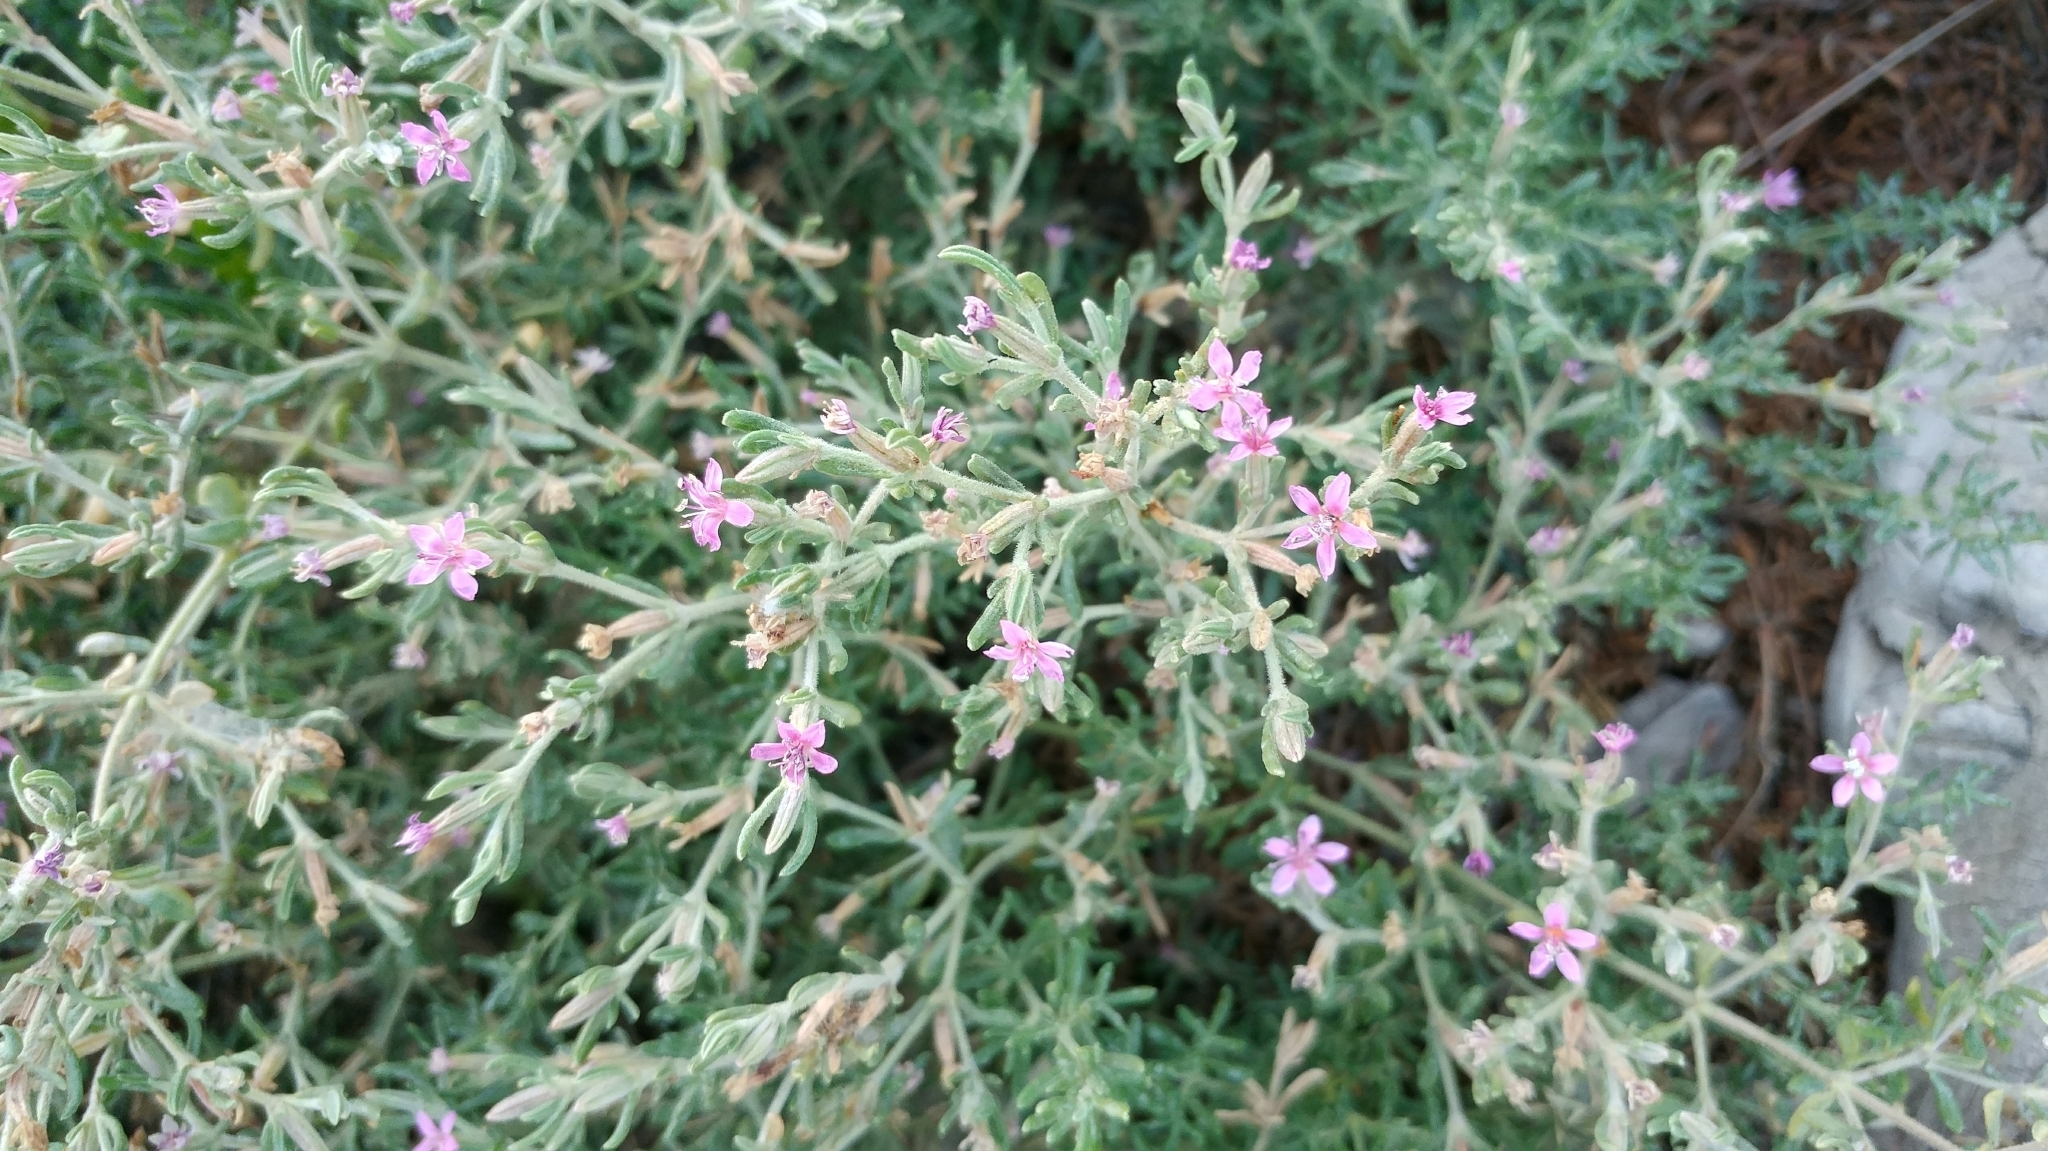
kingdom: Plantae
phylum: Tracheophyta
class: Magnoliopsida
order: Caryophyllales
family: Frankeniaceae
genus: Frankenia
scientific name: Frankenia salina
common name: Alkali seaheath
